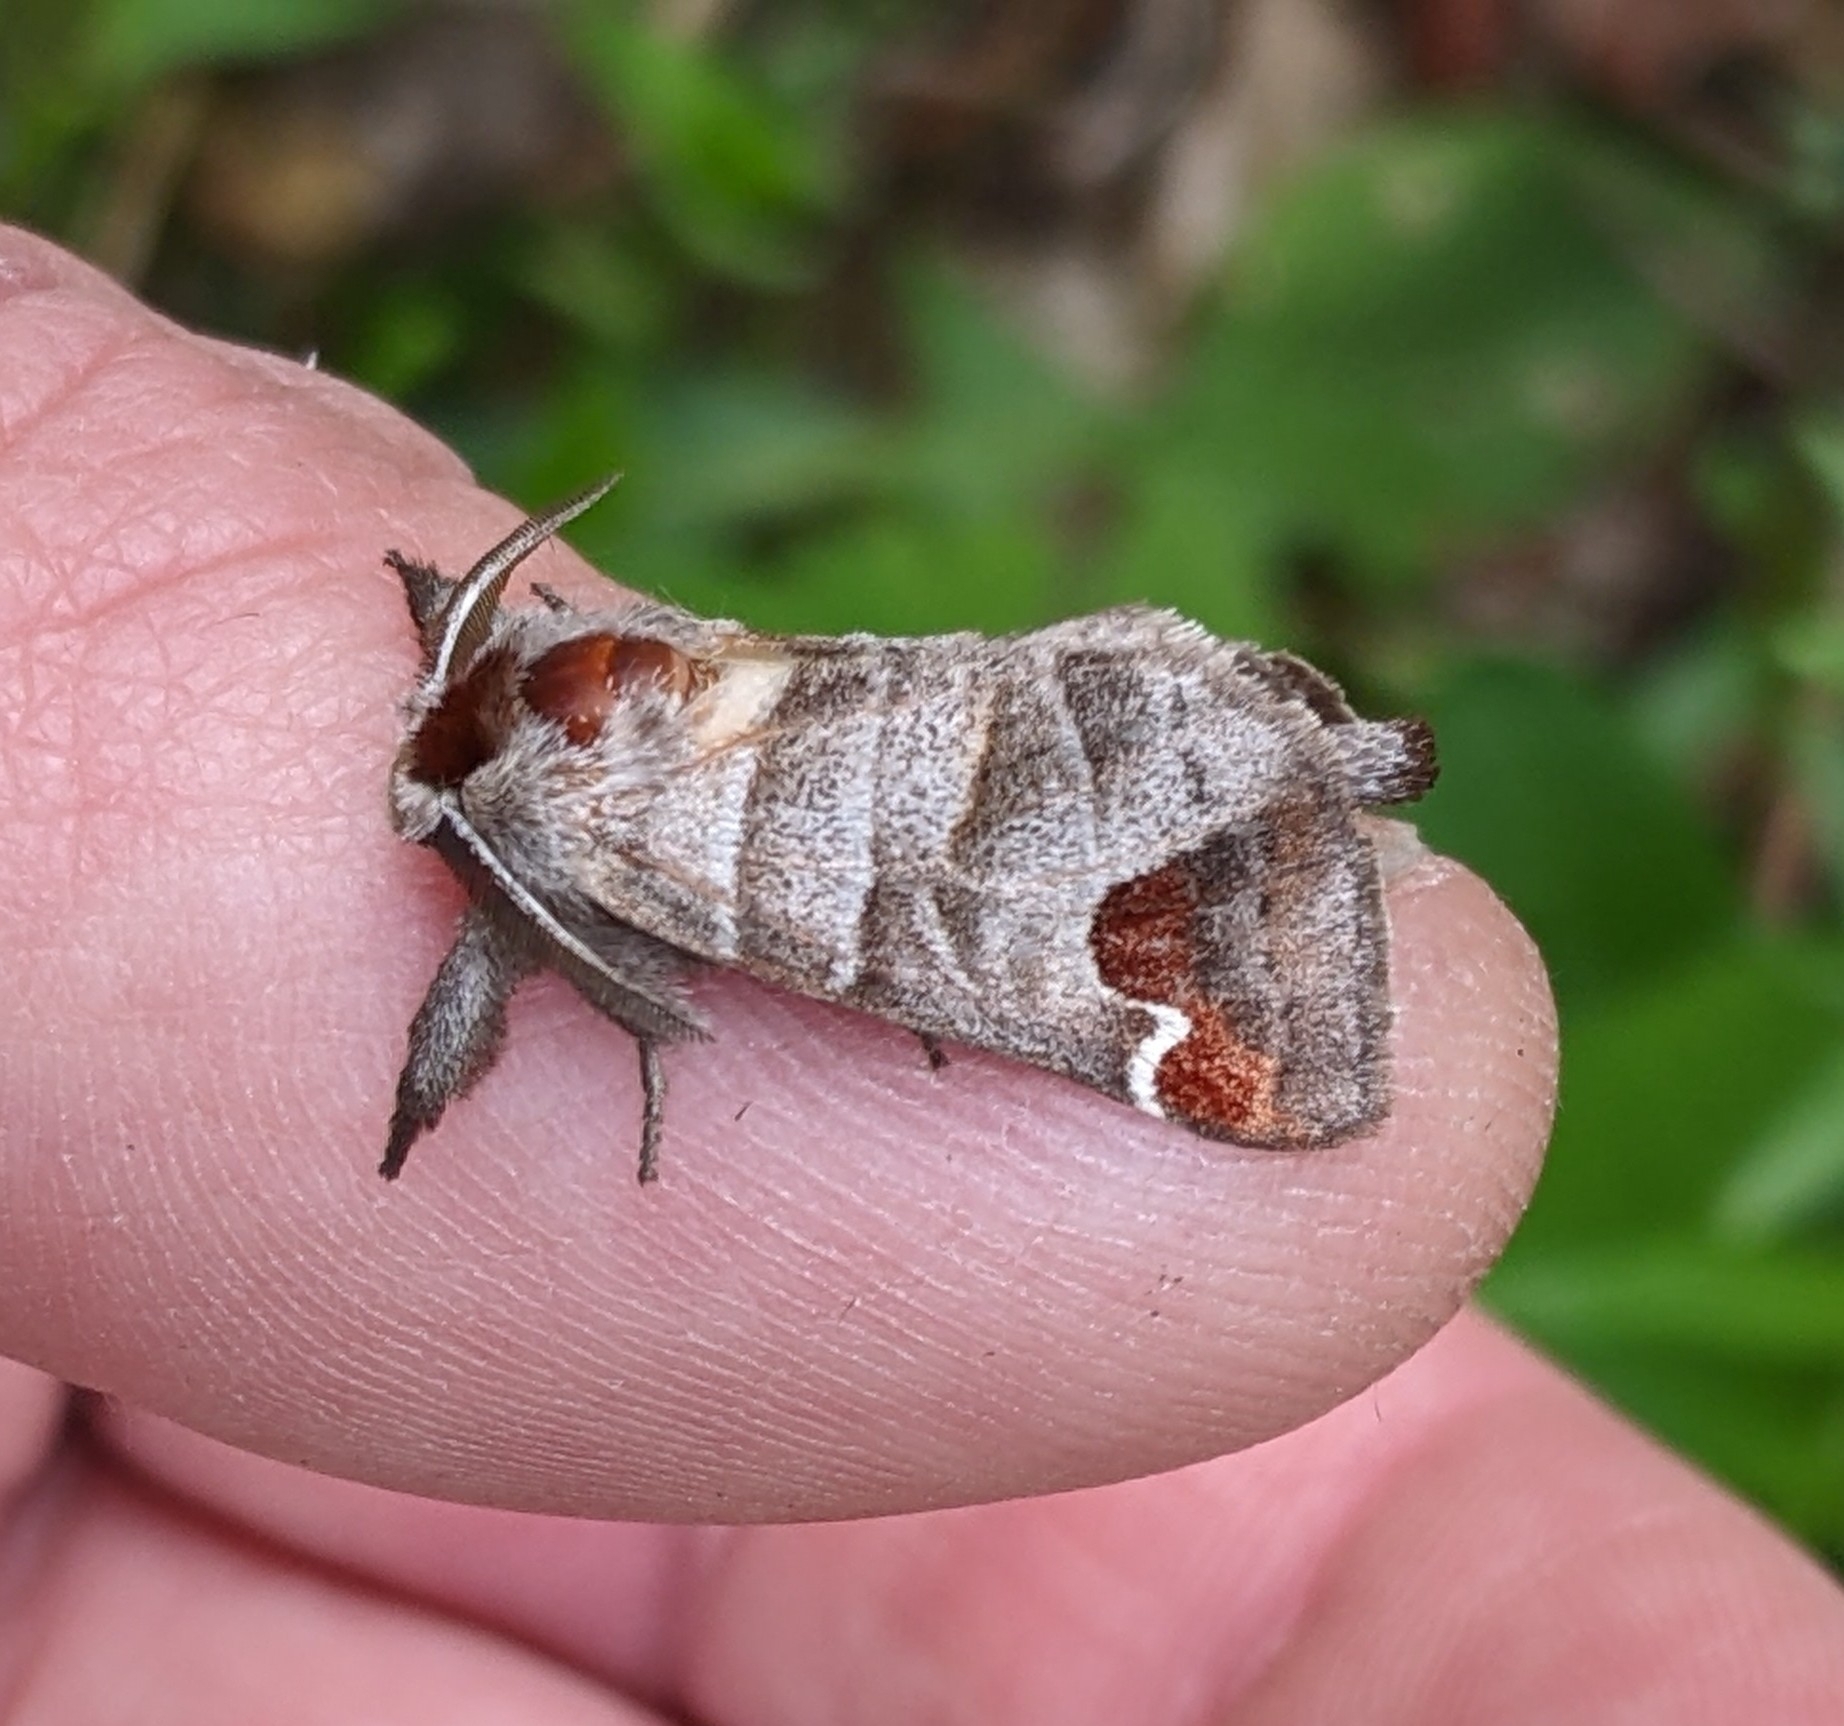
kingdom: Animalia
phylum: Arthropoda
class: Insecta
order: Lepidoptera
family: Notodontidae
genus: Clostera
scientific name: Clostera albosigma
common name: Sigmoid prominent
